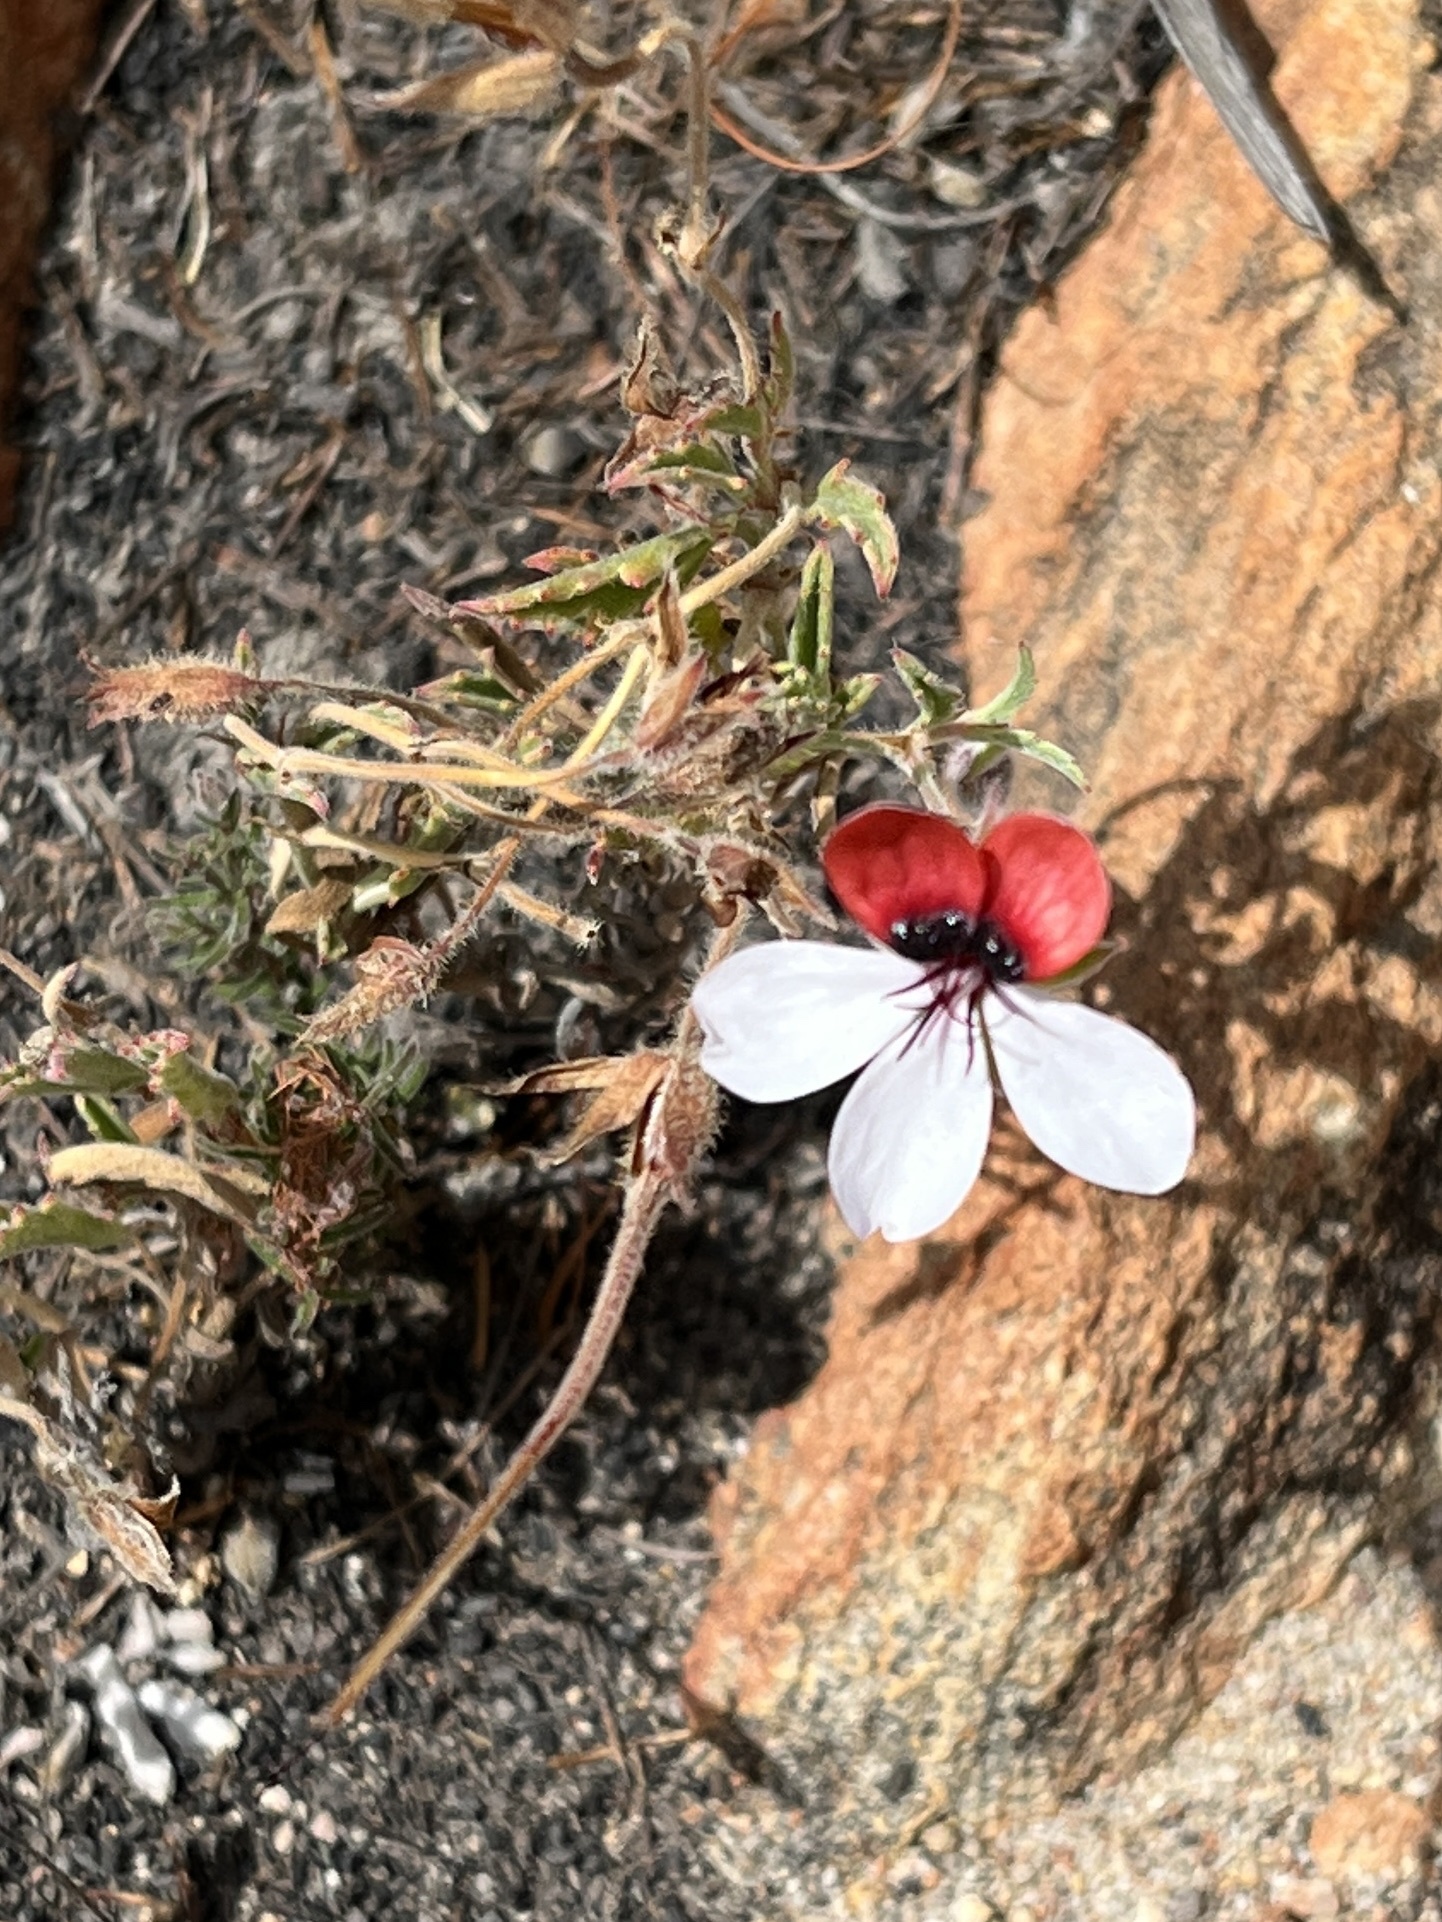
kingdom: Plantae
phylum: Tracheophyta
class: Magnoliopsida
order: Geraniales
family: Geraniaceae
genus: Pelargonium
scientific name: Pelargonium tricolor
